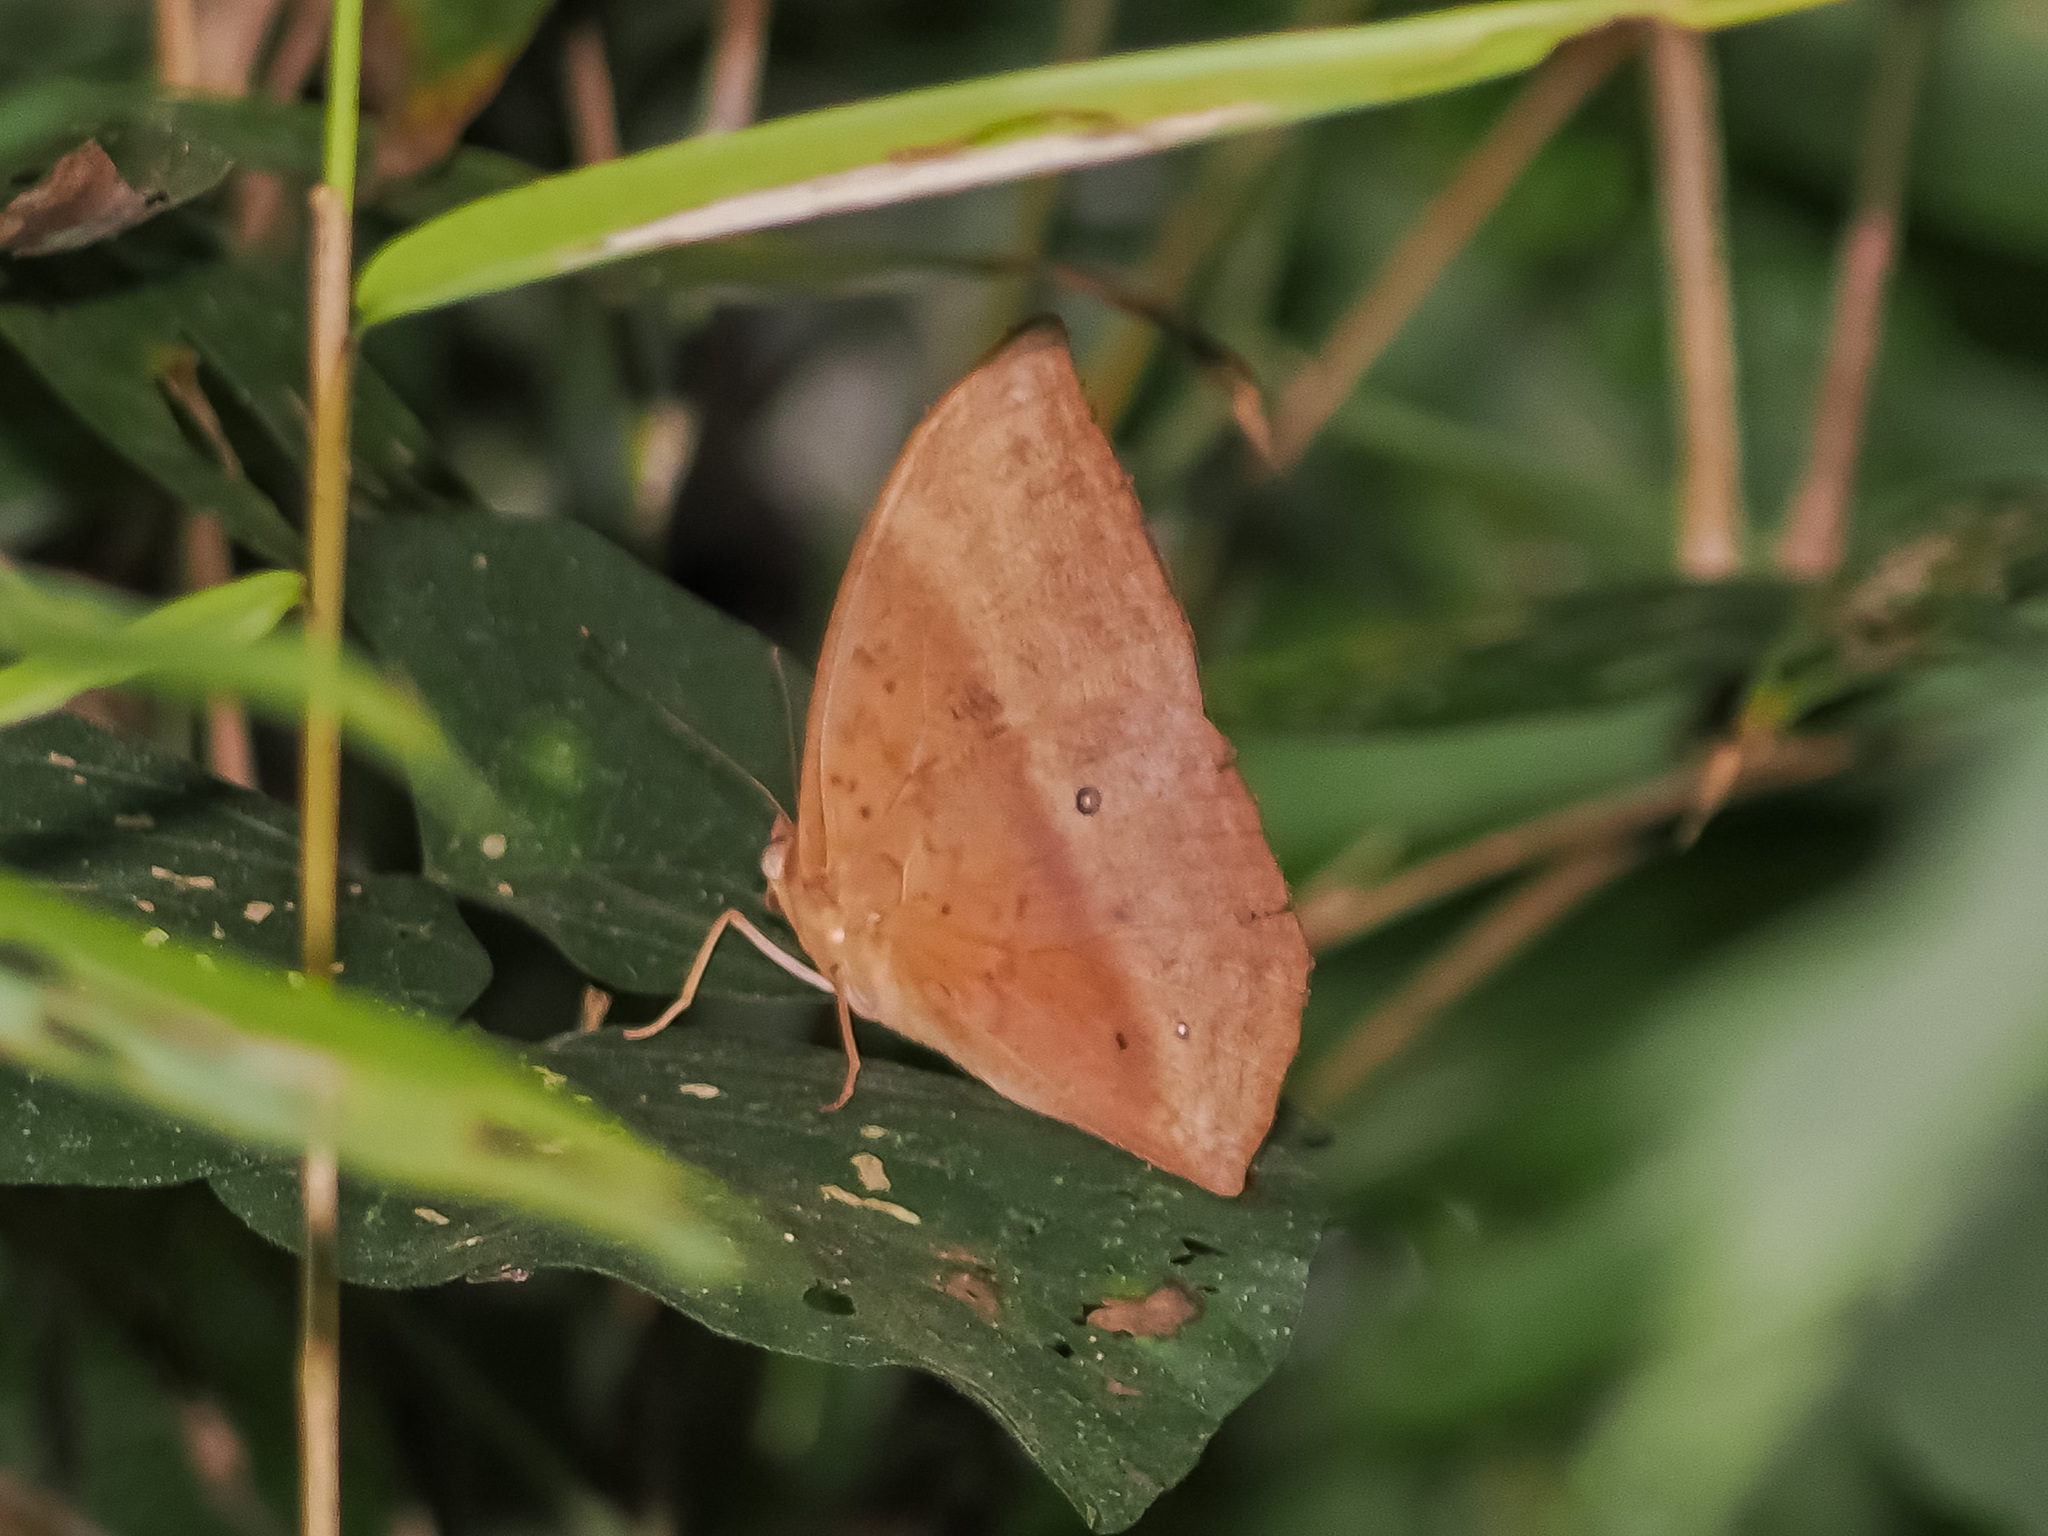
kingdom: Animalia
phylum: Arthropoda
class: Insecta
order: Lepidoptera
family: Nymphalidae
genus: Discophora
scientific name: Discophora sondaica
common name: Common duffer
